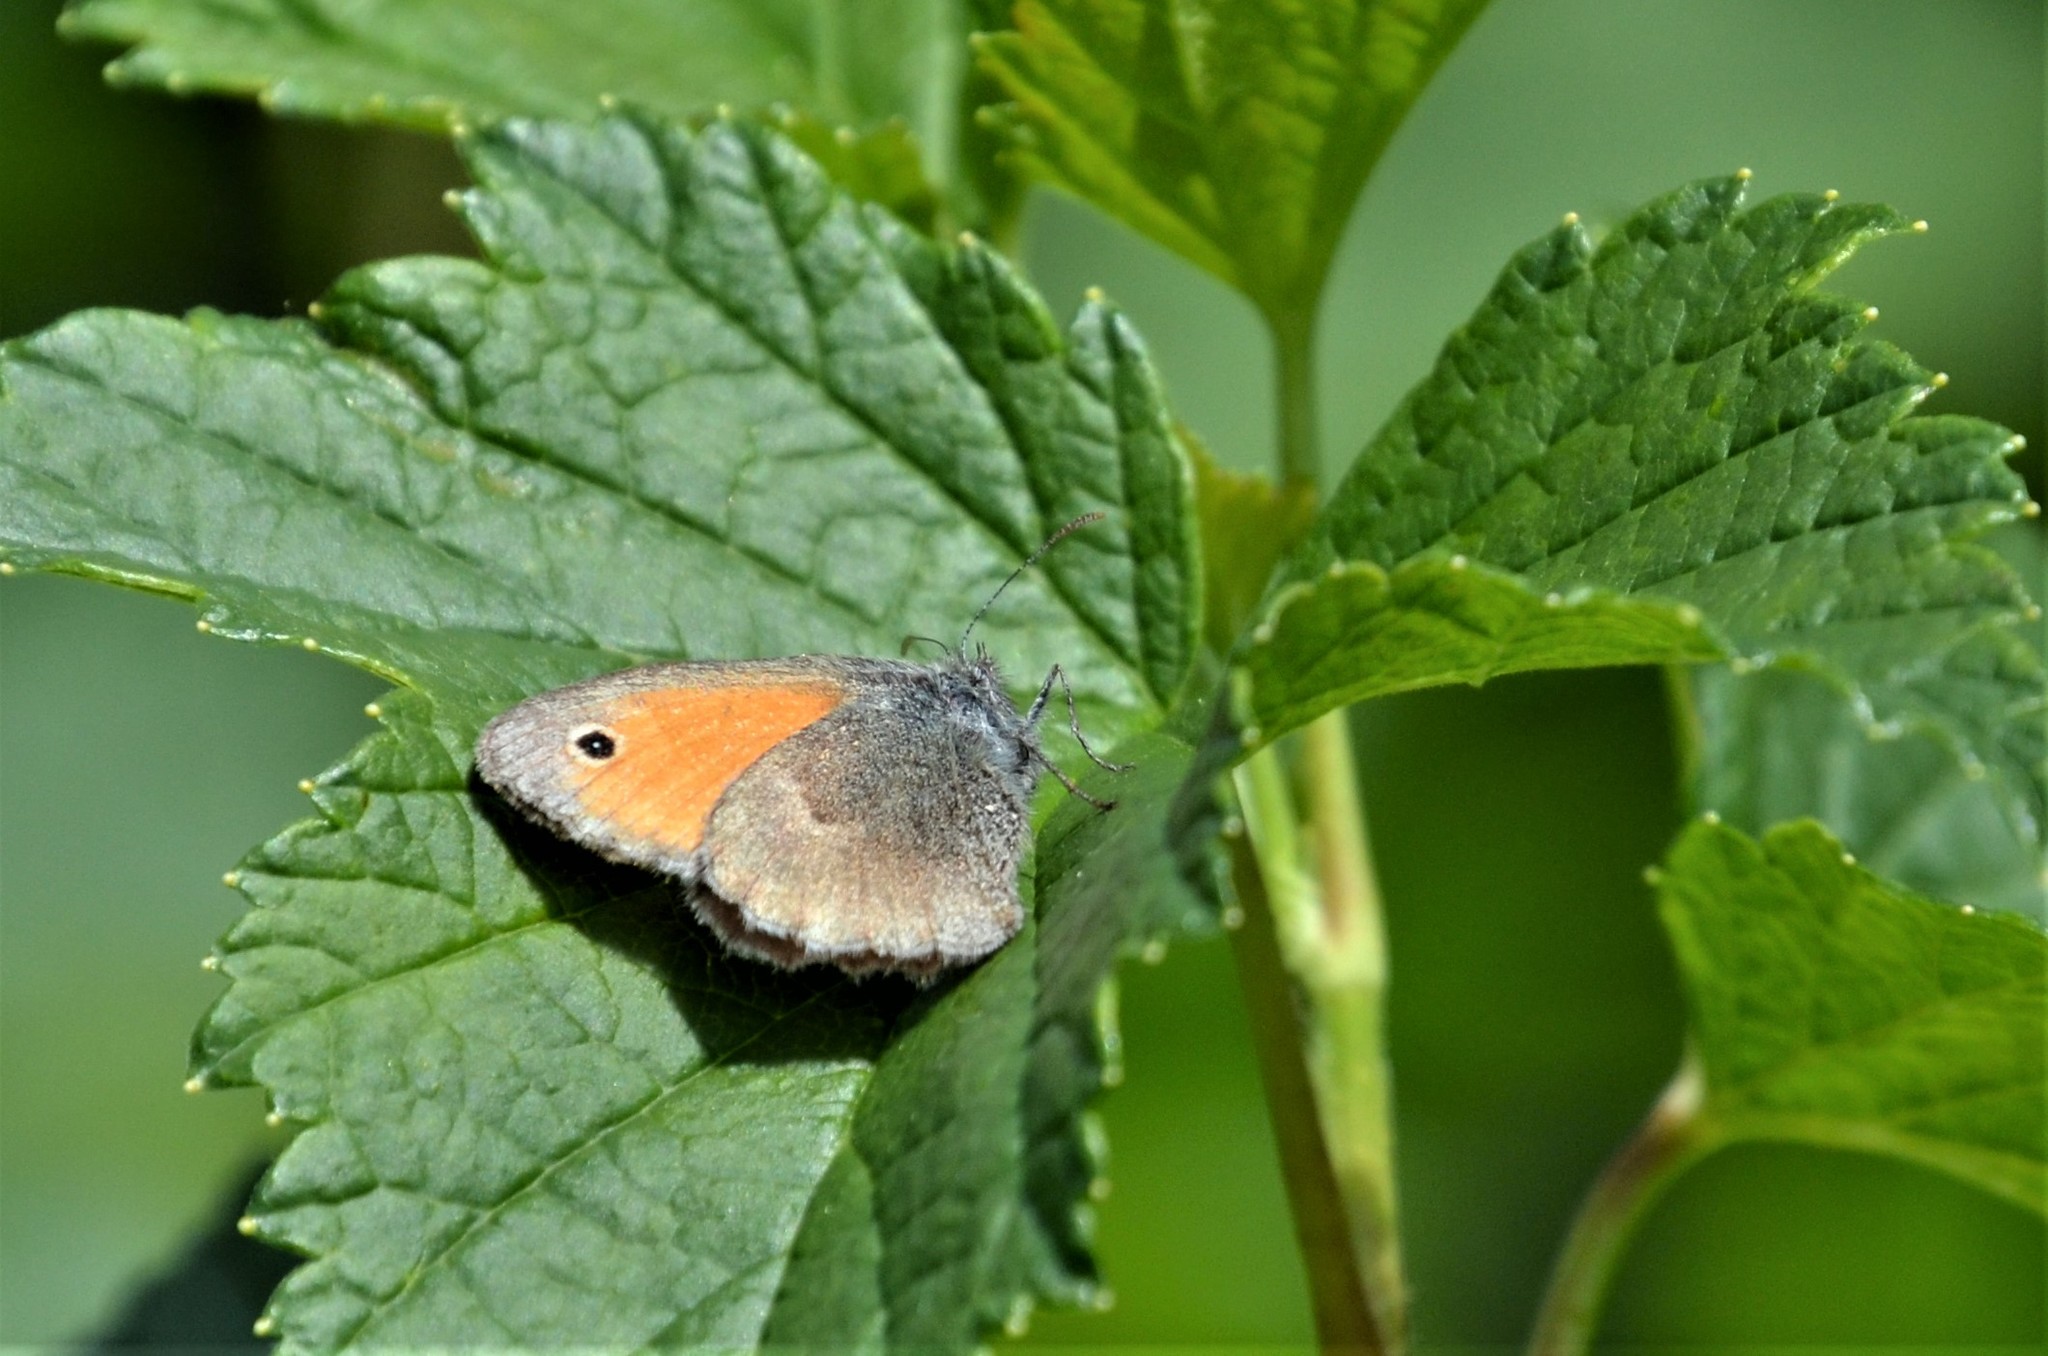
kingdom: Animalia
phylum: Arthropoda
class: Insecta
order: Lepidoptera
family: Nymphalidae
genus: Coenonympha
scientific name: Coenonympha pamphilus
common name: Small heath
